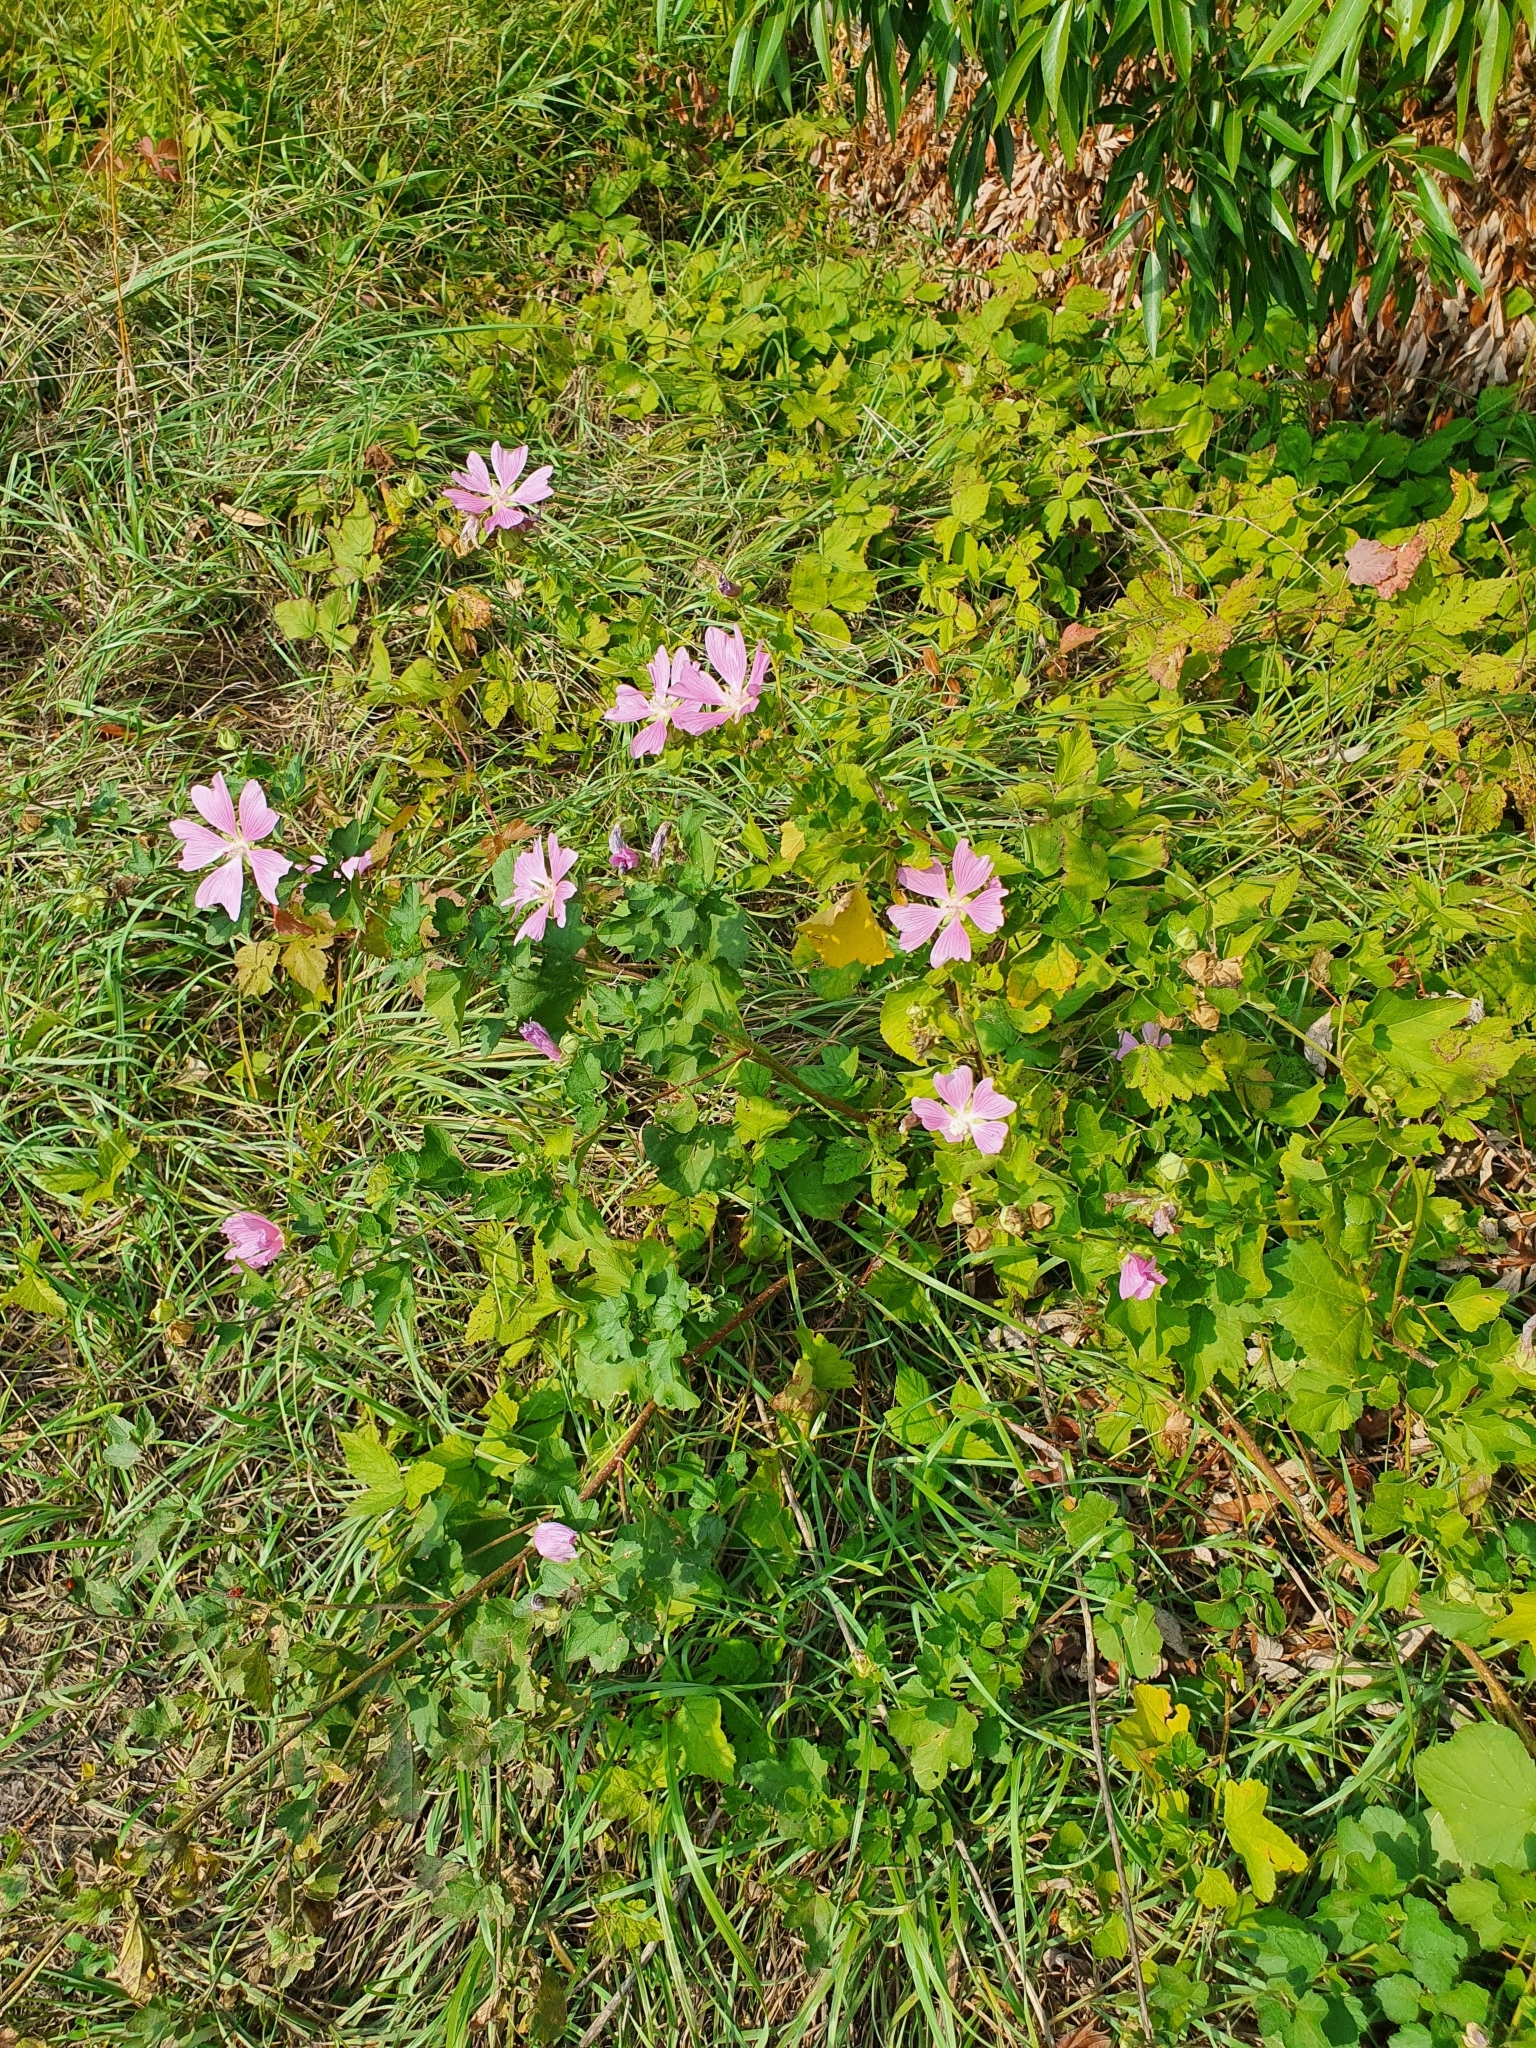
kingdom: Plantae
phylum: Tracheophyta
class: Magnoliopsida
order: Malvales
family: Malvaceae
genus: Malva
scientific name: Malva thuringiaca
